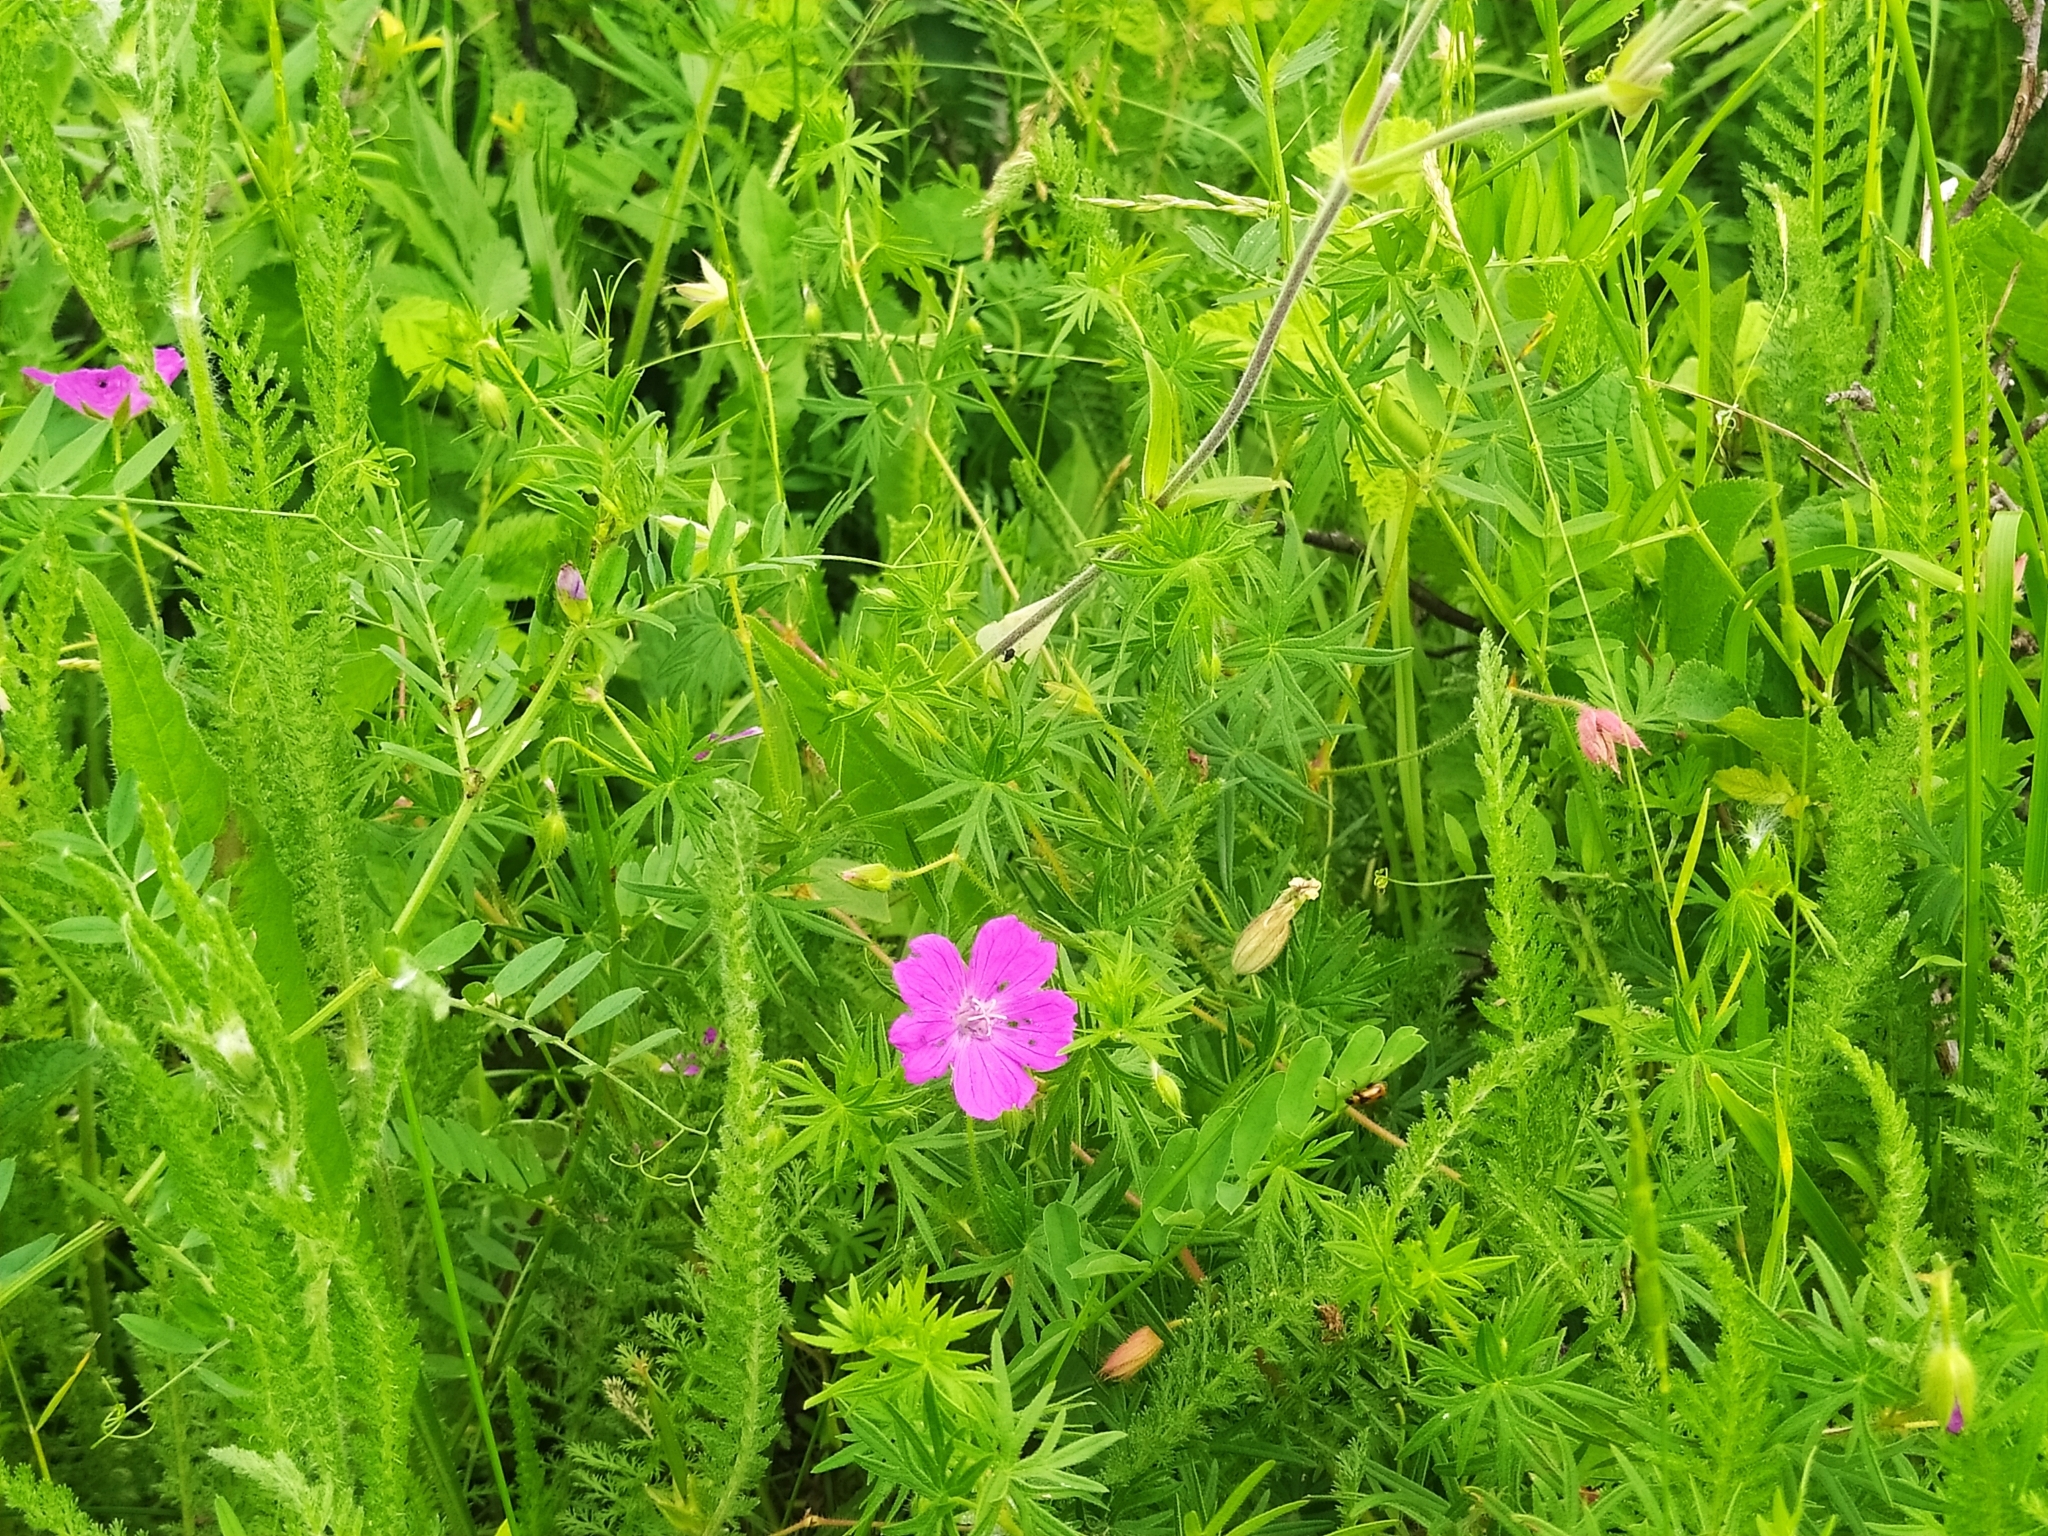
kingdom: Plantae
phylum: Tracheophyta
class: Magnoliopsida
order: Geraniales
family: Geraniaceae
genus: Geranium
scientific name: Geranium sanguineum
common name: Bloody crane's-bill
